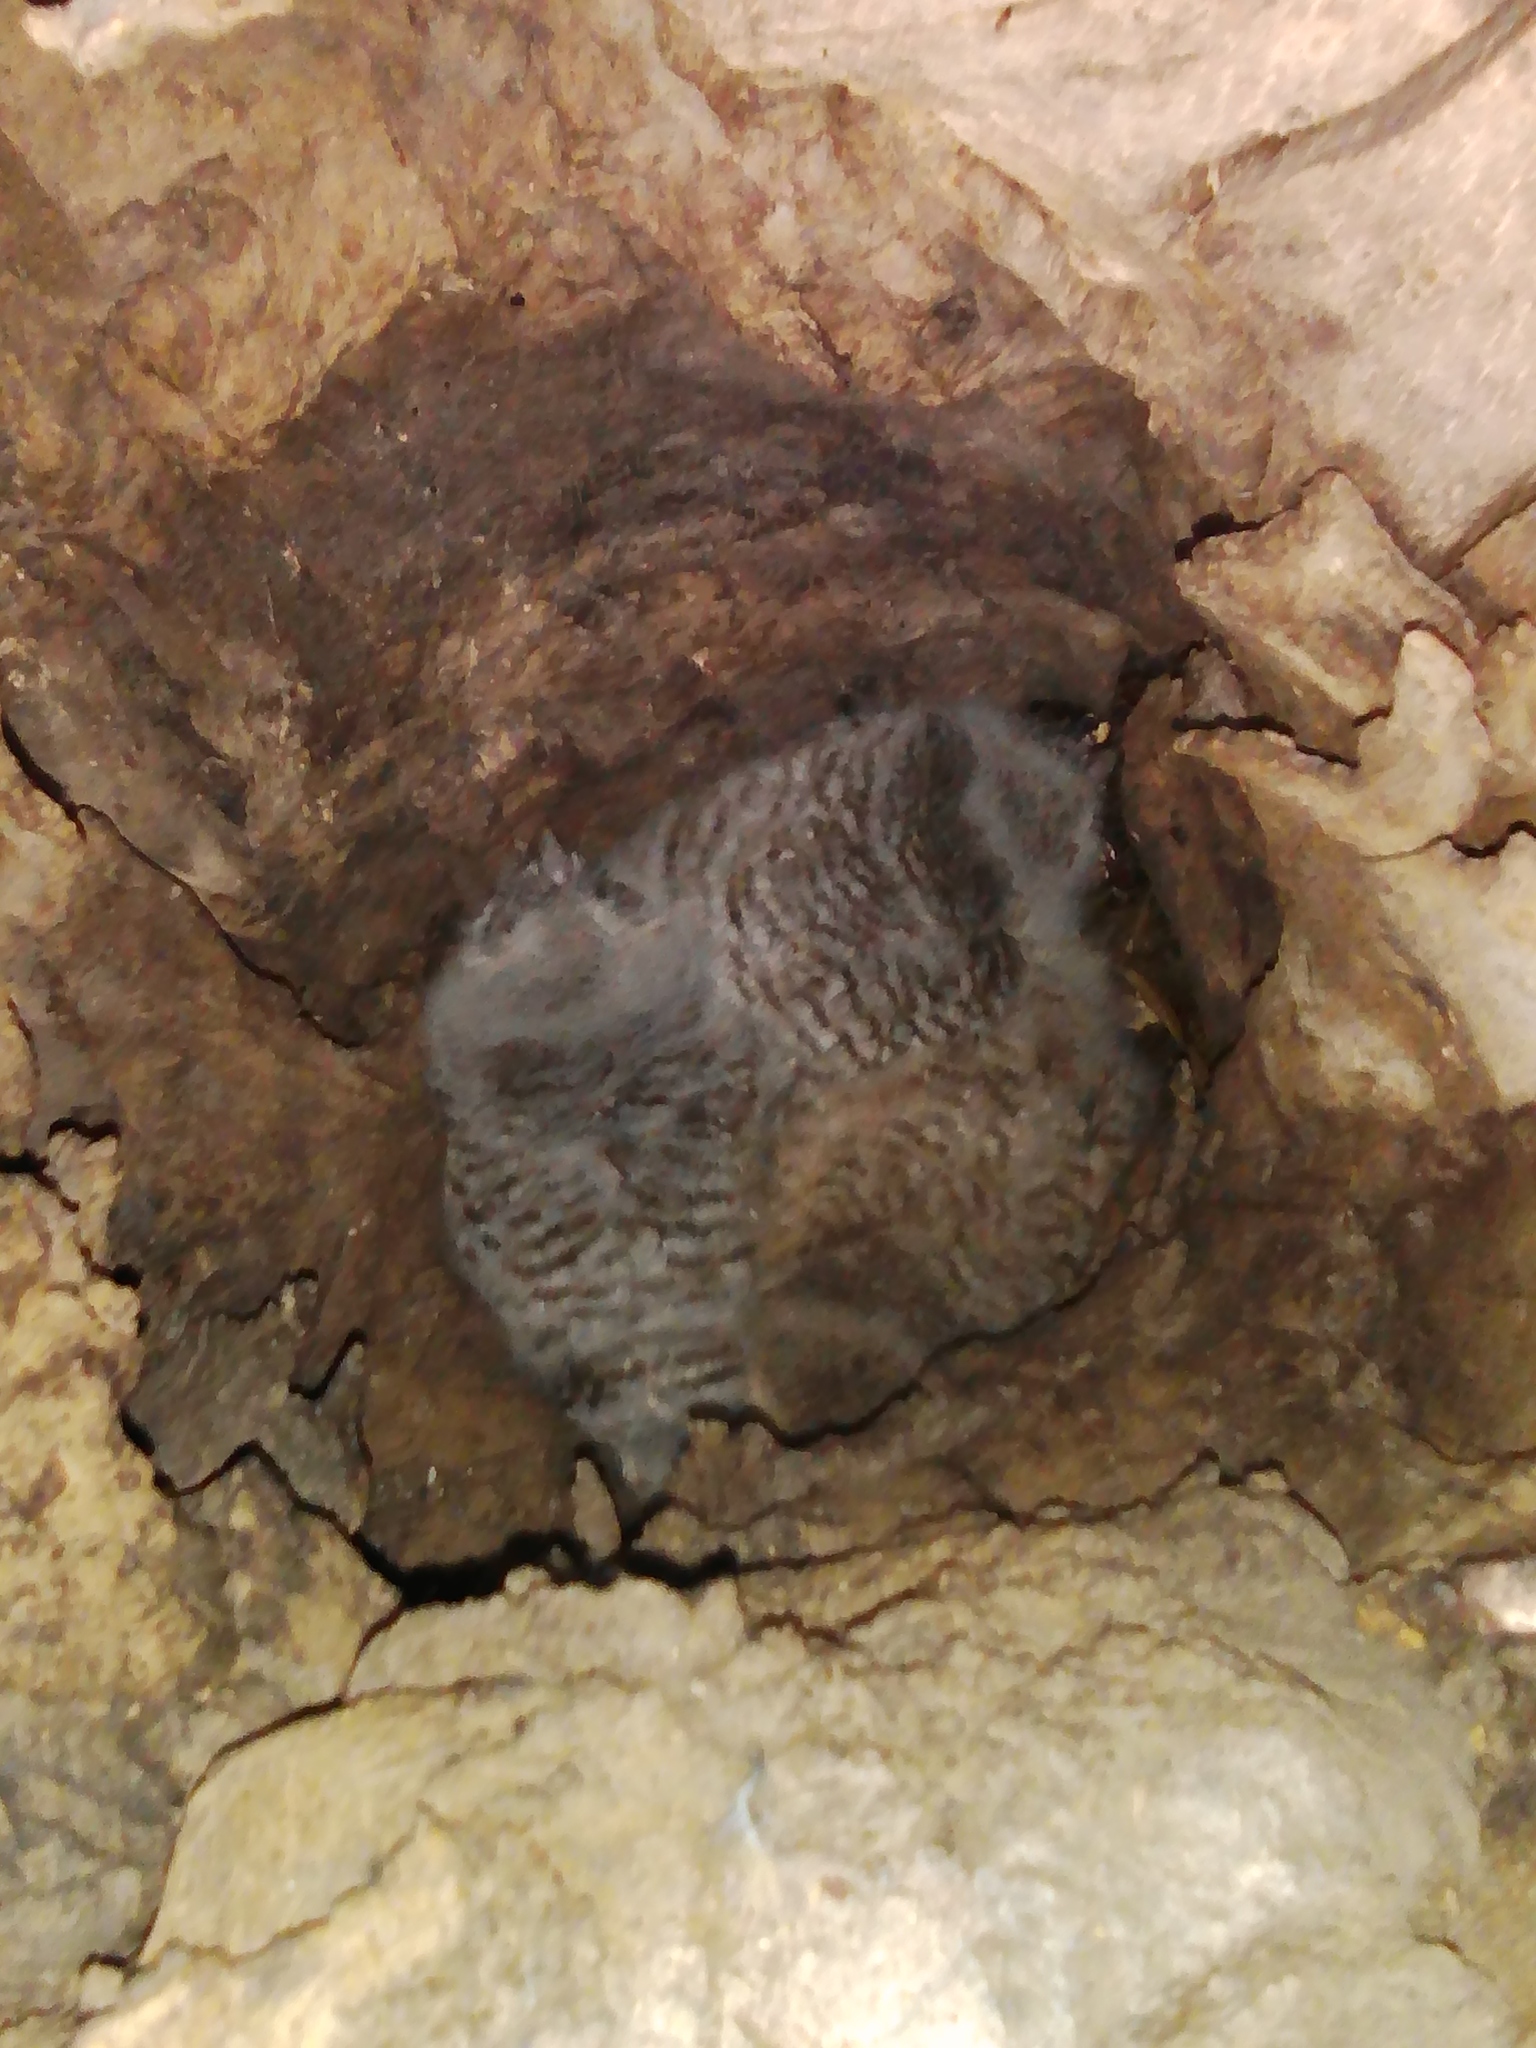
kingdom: Animalia
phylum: Chordata
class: Aves
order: Strigiformes
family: Strigidae
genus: Strix
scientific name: Strix aluco
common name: Tawny owl
